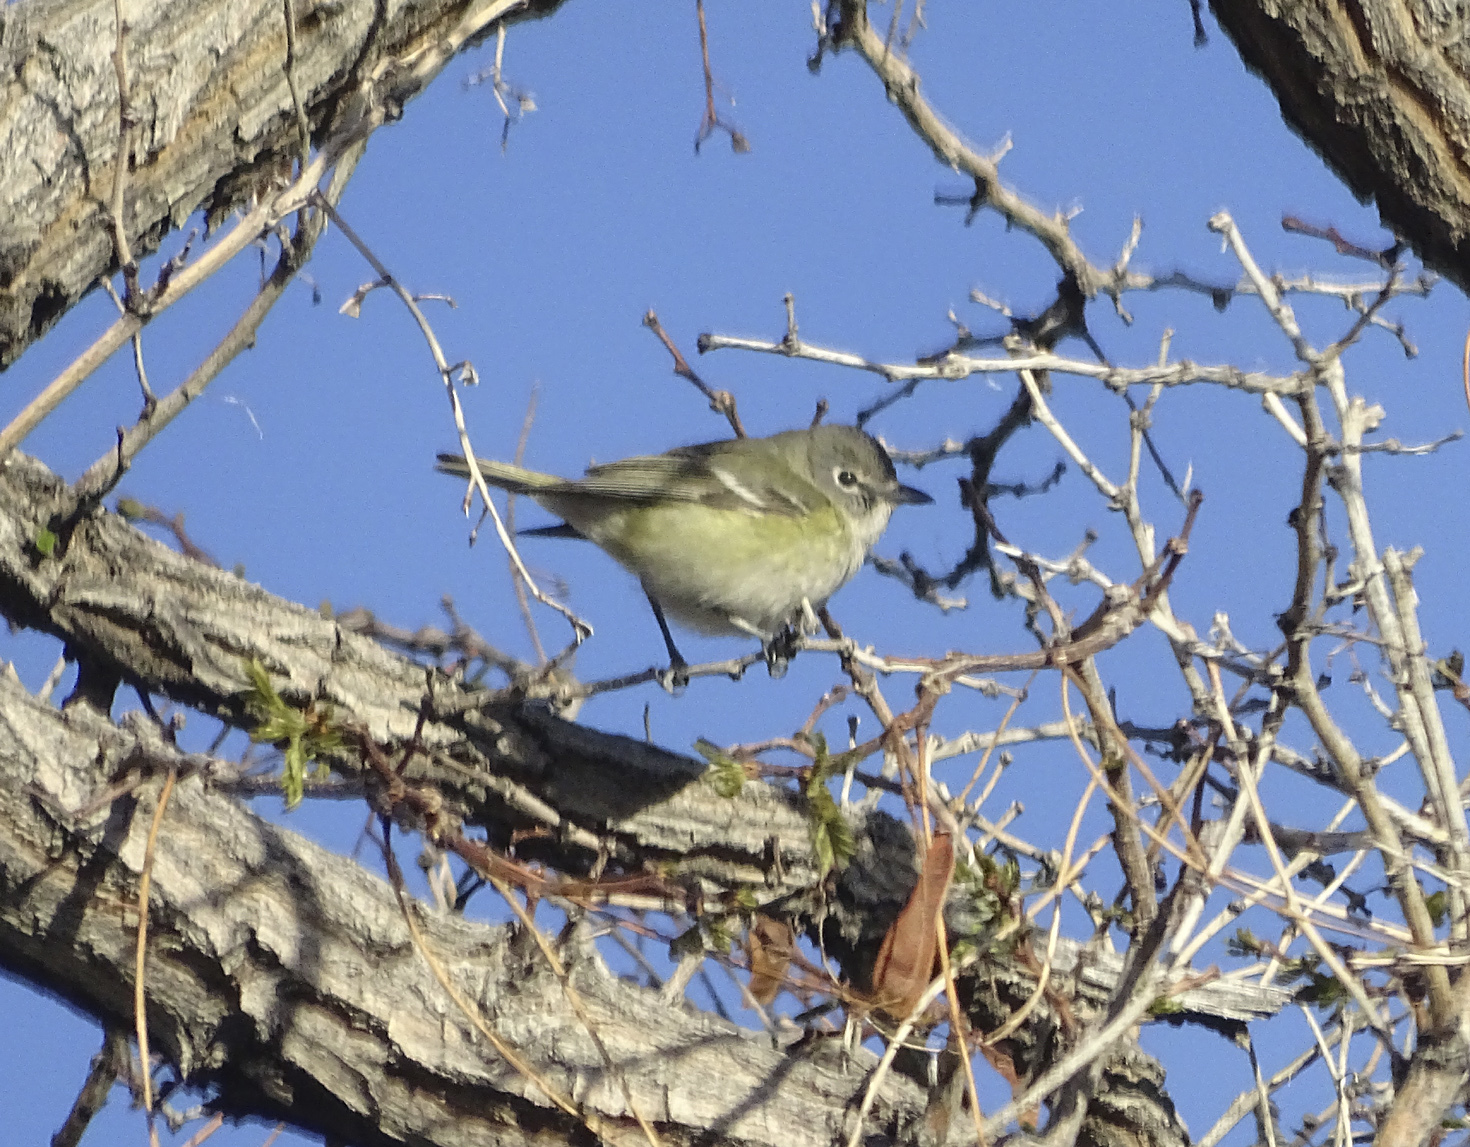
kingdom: Animalia
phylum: Chordata
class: Aves
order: Passeriformes
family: Vireonidae
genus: Vireo
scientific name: Vireo cassinii
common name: Cassin's vireo
